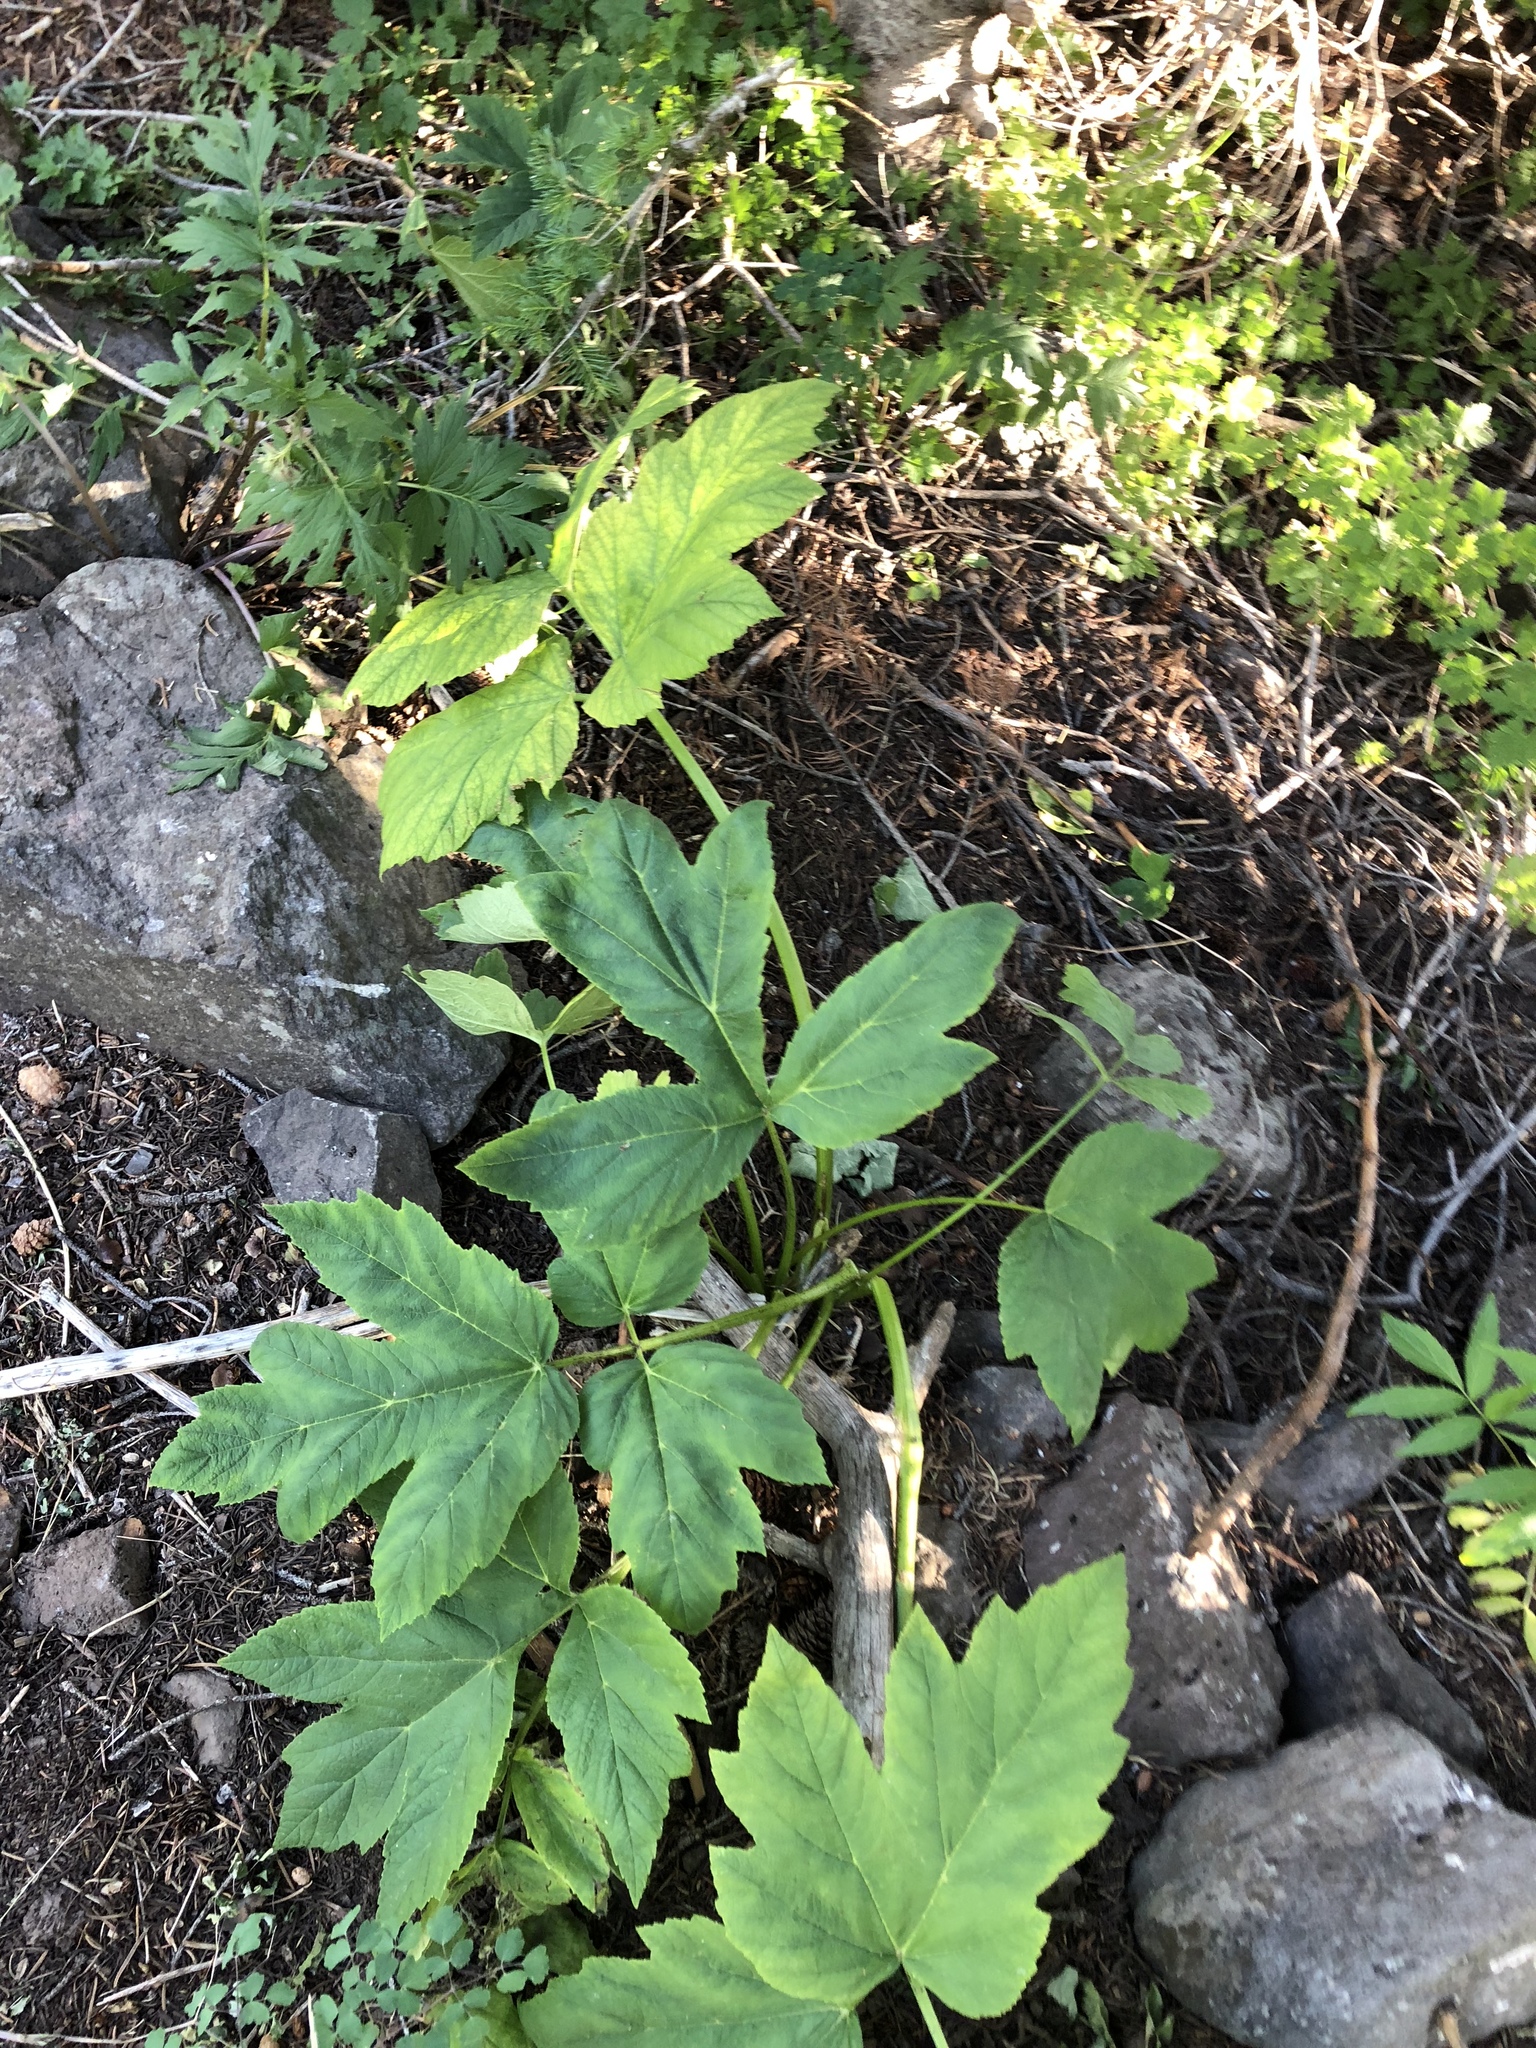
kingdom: Plantae
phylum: Tracheophyta
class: Magnoliopsida
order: Apiales
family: Apiaceae
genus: Heracleum
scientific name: Heracleum maximum
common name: American cow parsnip
